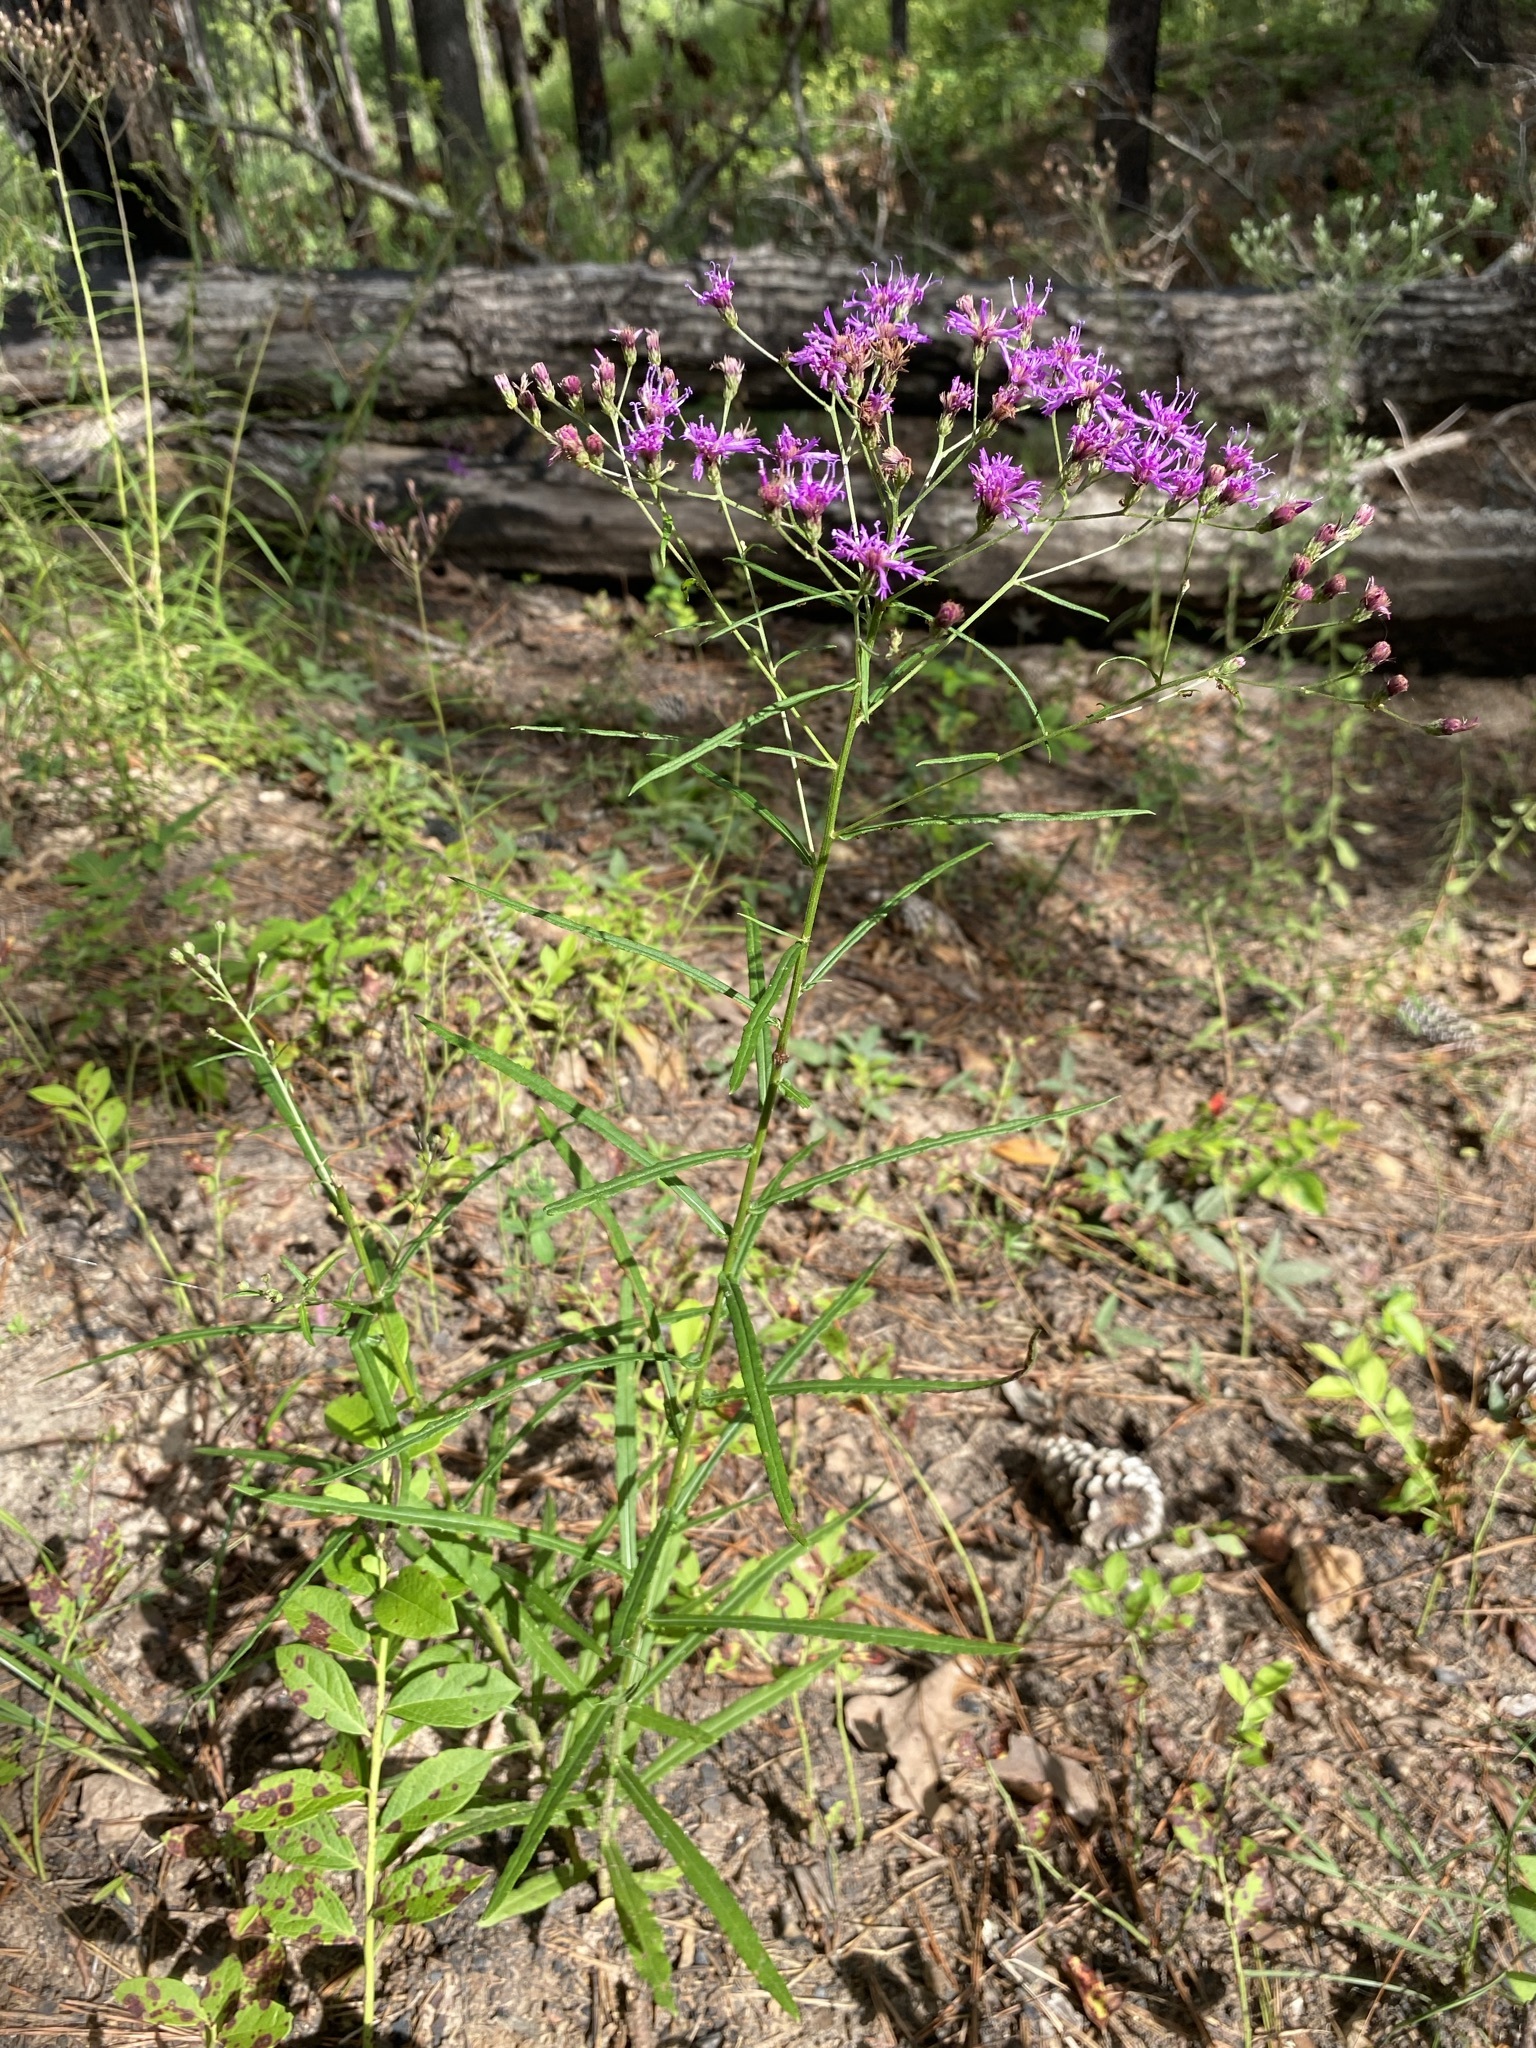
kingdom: Plantae
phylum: Tracheophyta
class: Magnoliopsida
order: Asterales
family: Asteraceae
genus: Vernonia
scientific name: Vernonia angustifolia
